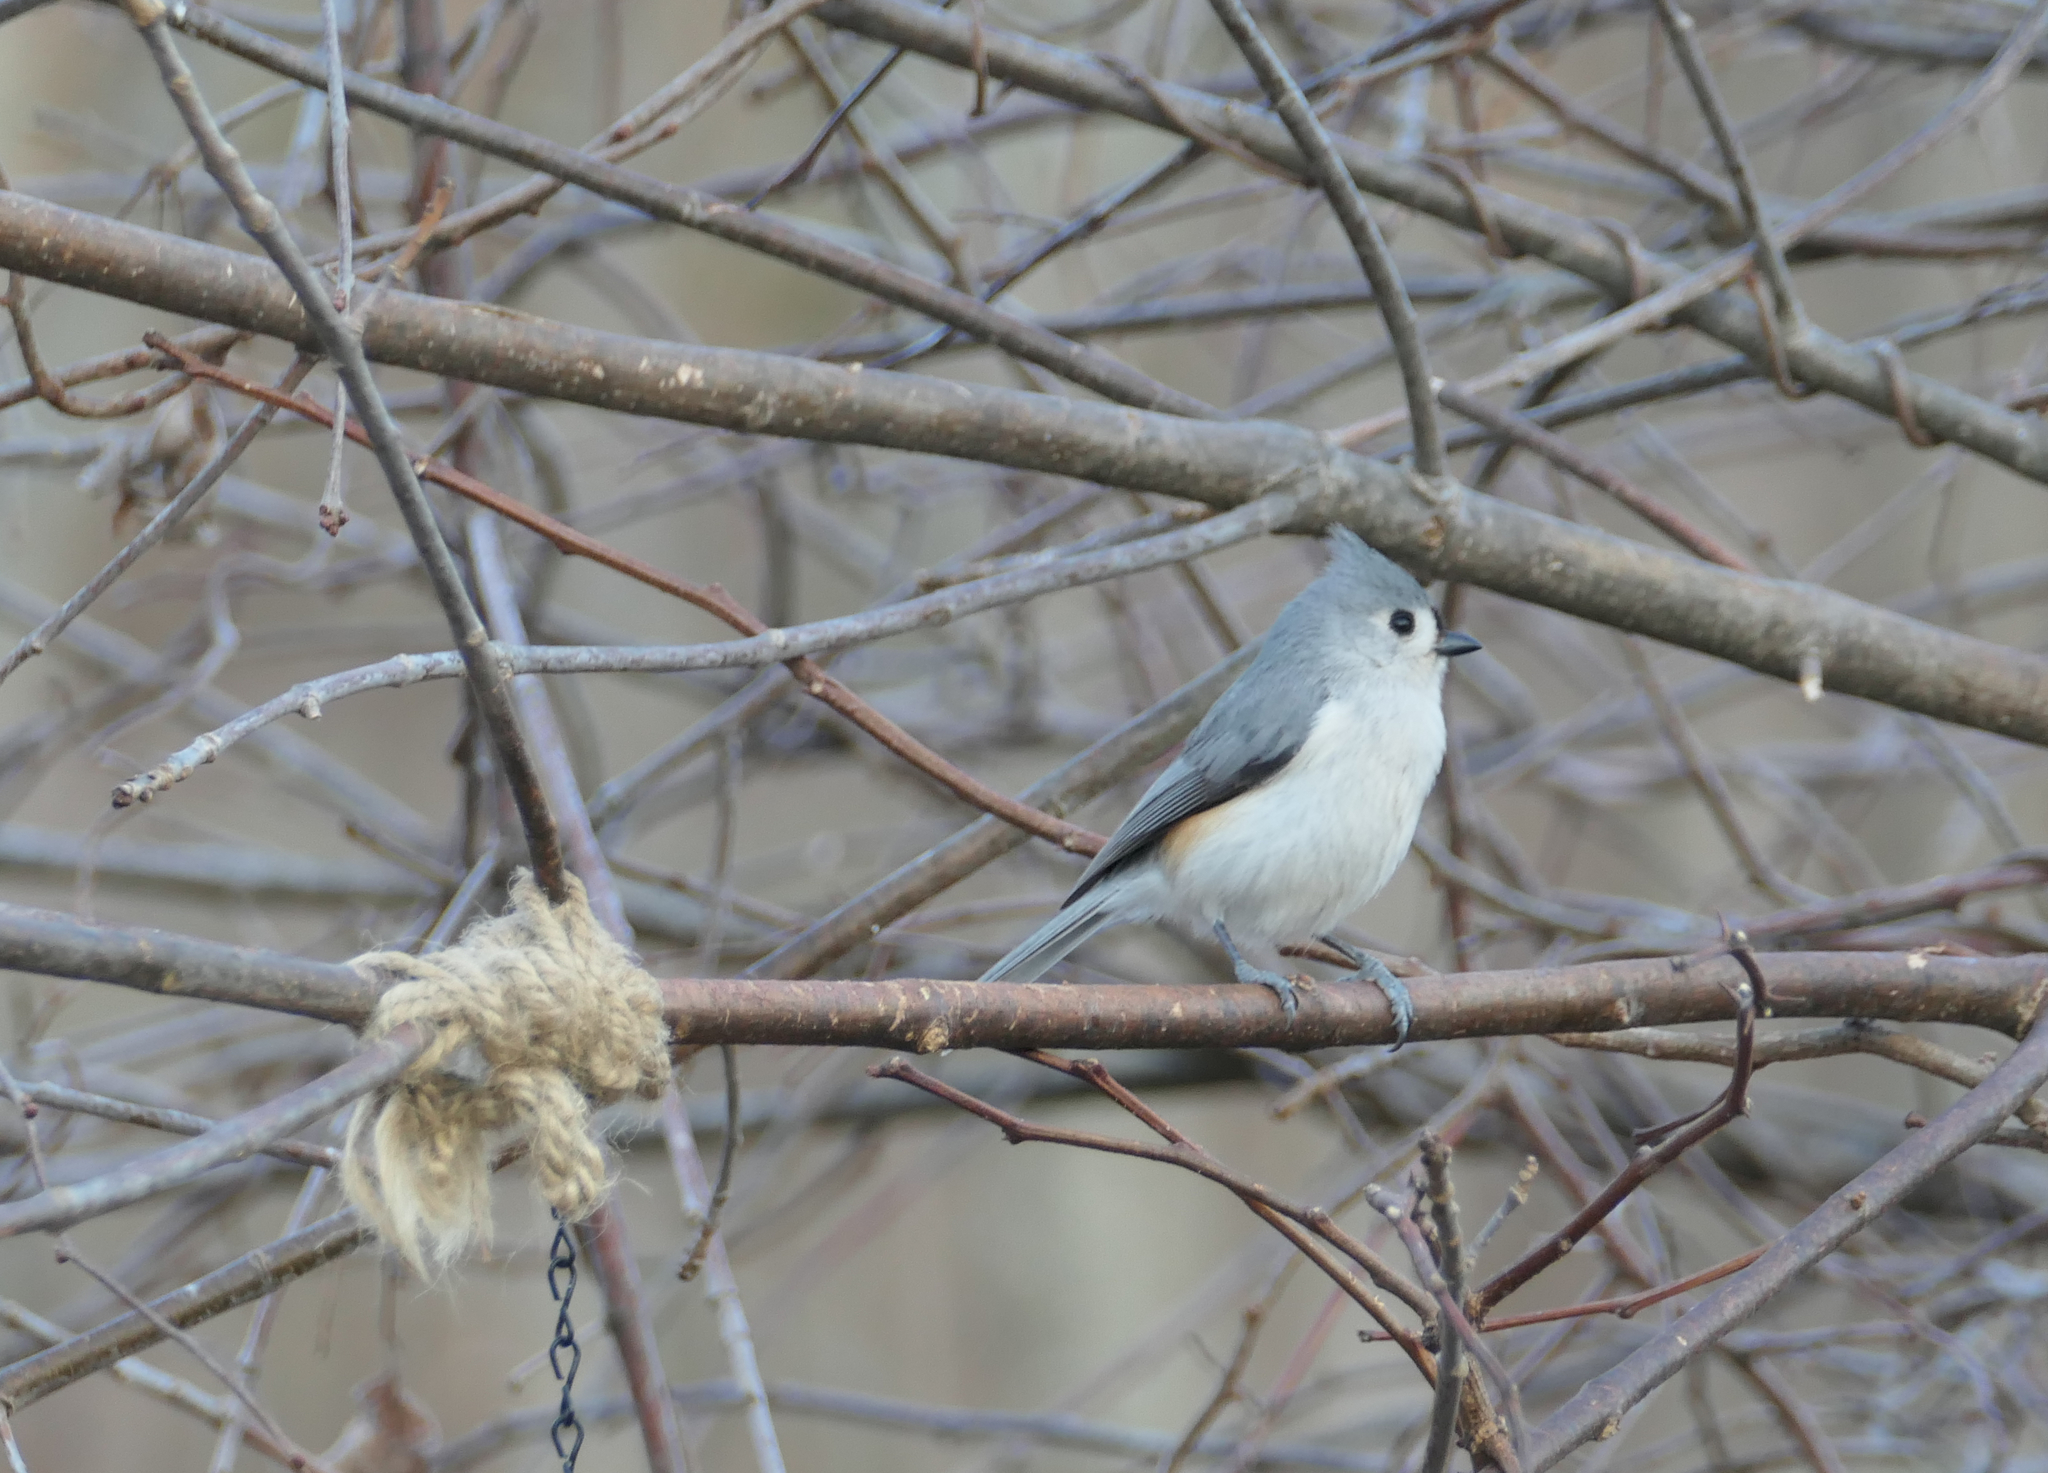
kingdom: Animalia
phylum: Chordata
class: Aves
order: Passeriformes
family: Paridae
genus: Baeolophus
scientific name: Baeolophus bicolor
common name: Tufted titmouse
